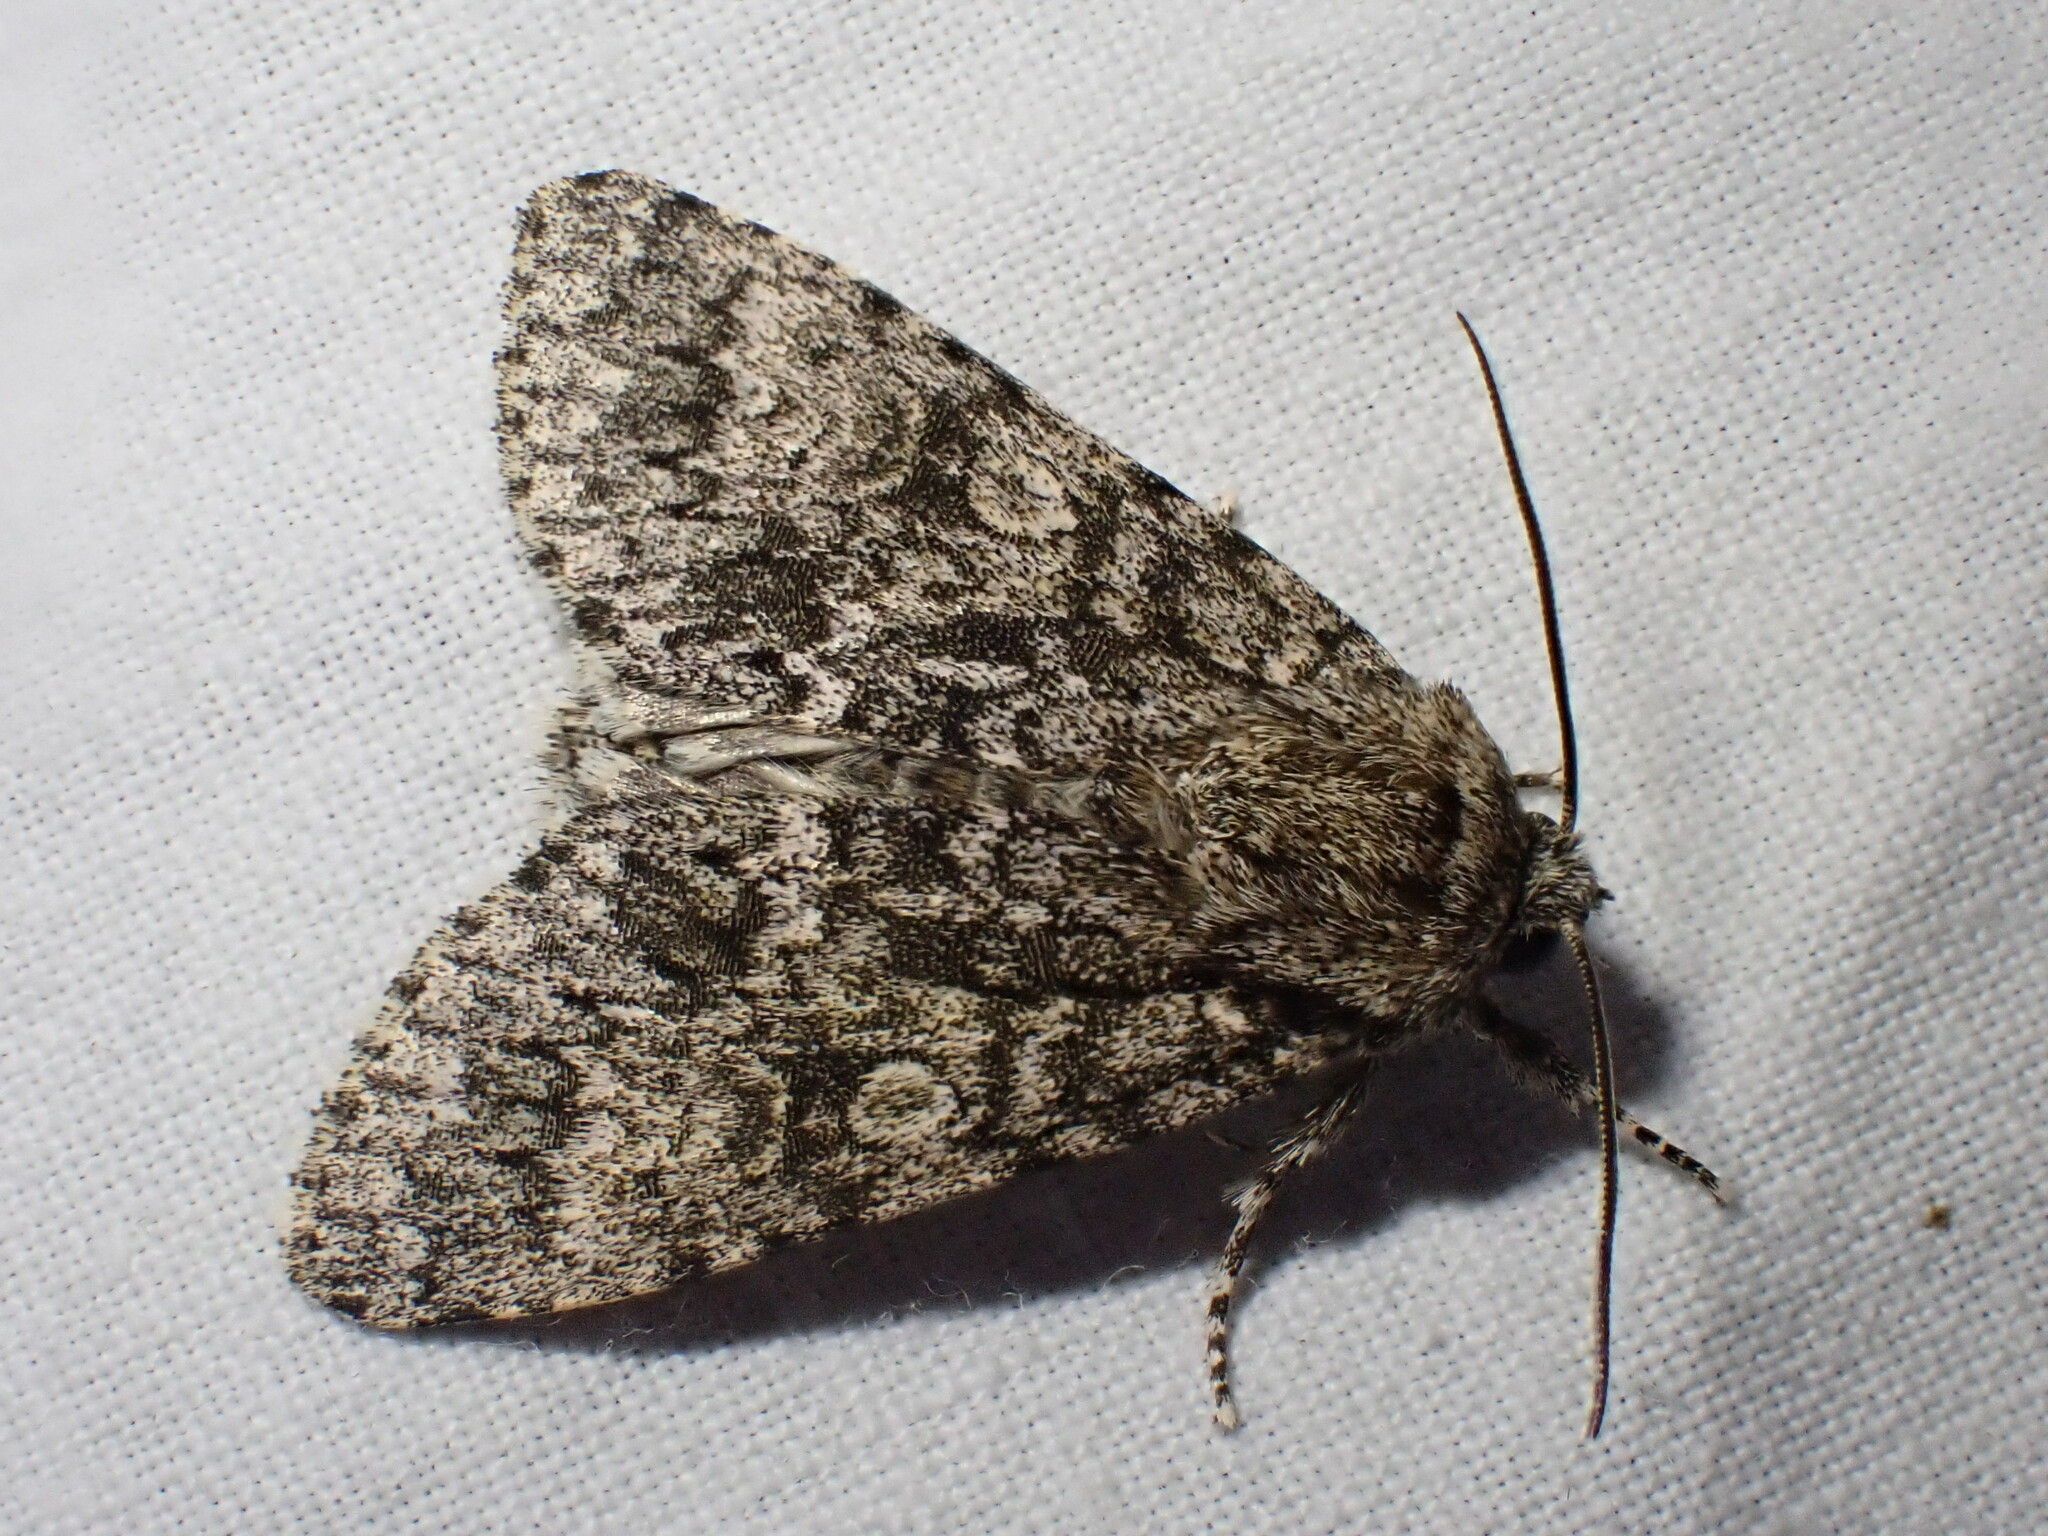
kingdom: Animalia
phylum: Arthropoda
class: Insecta
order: Lepidoptera
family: Noctuidae
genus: Acronicta
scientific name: Acronicta megacephala
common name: Poplar grey
